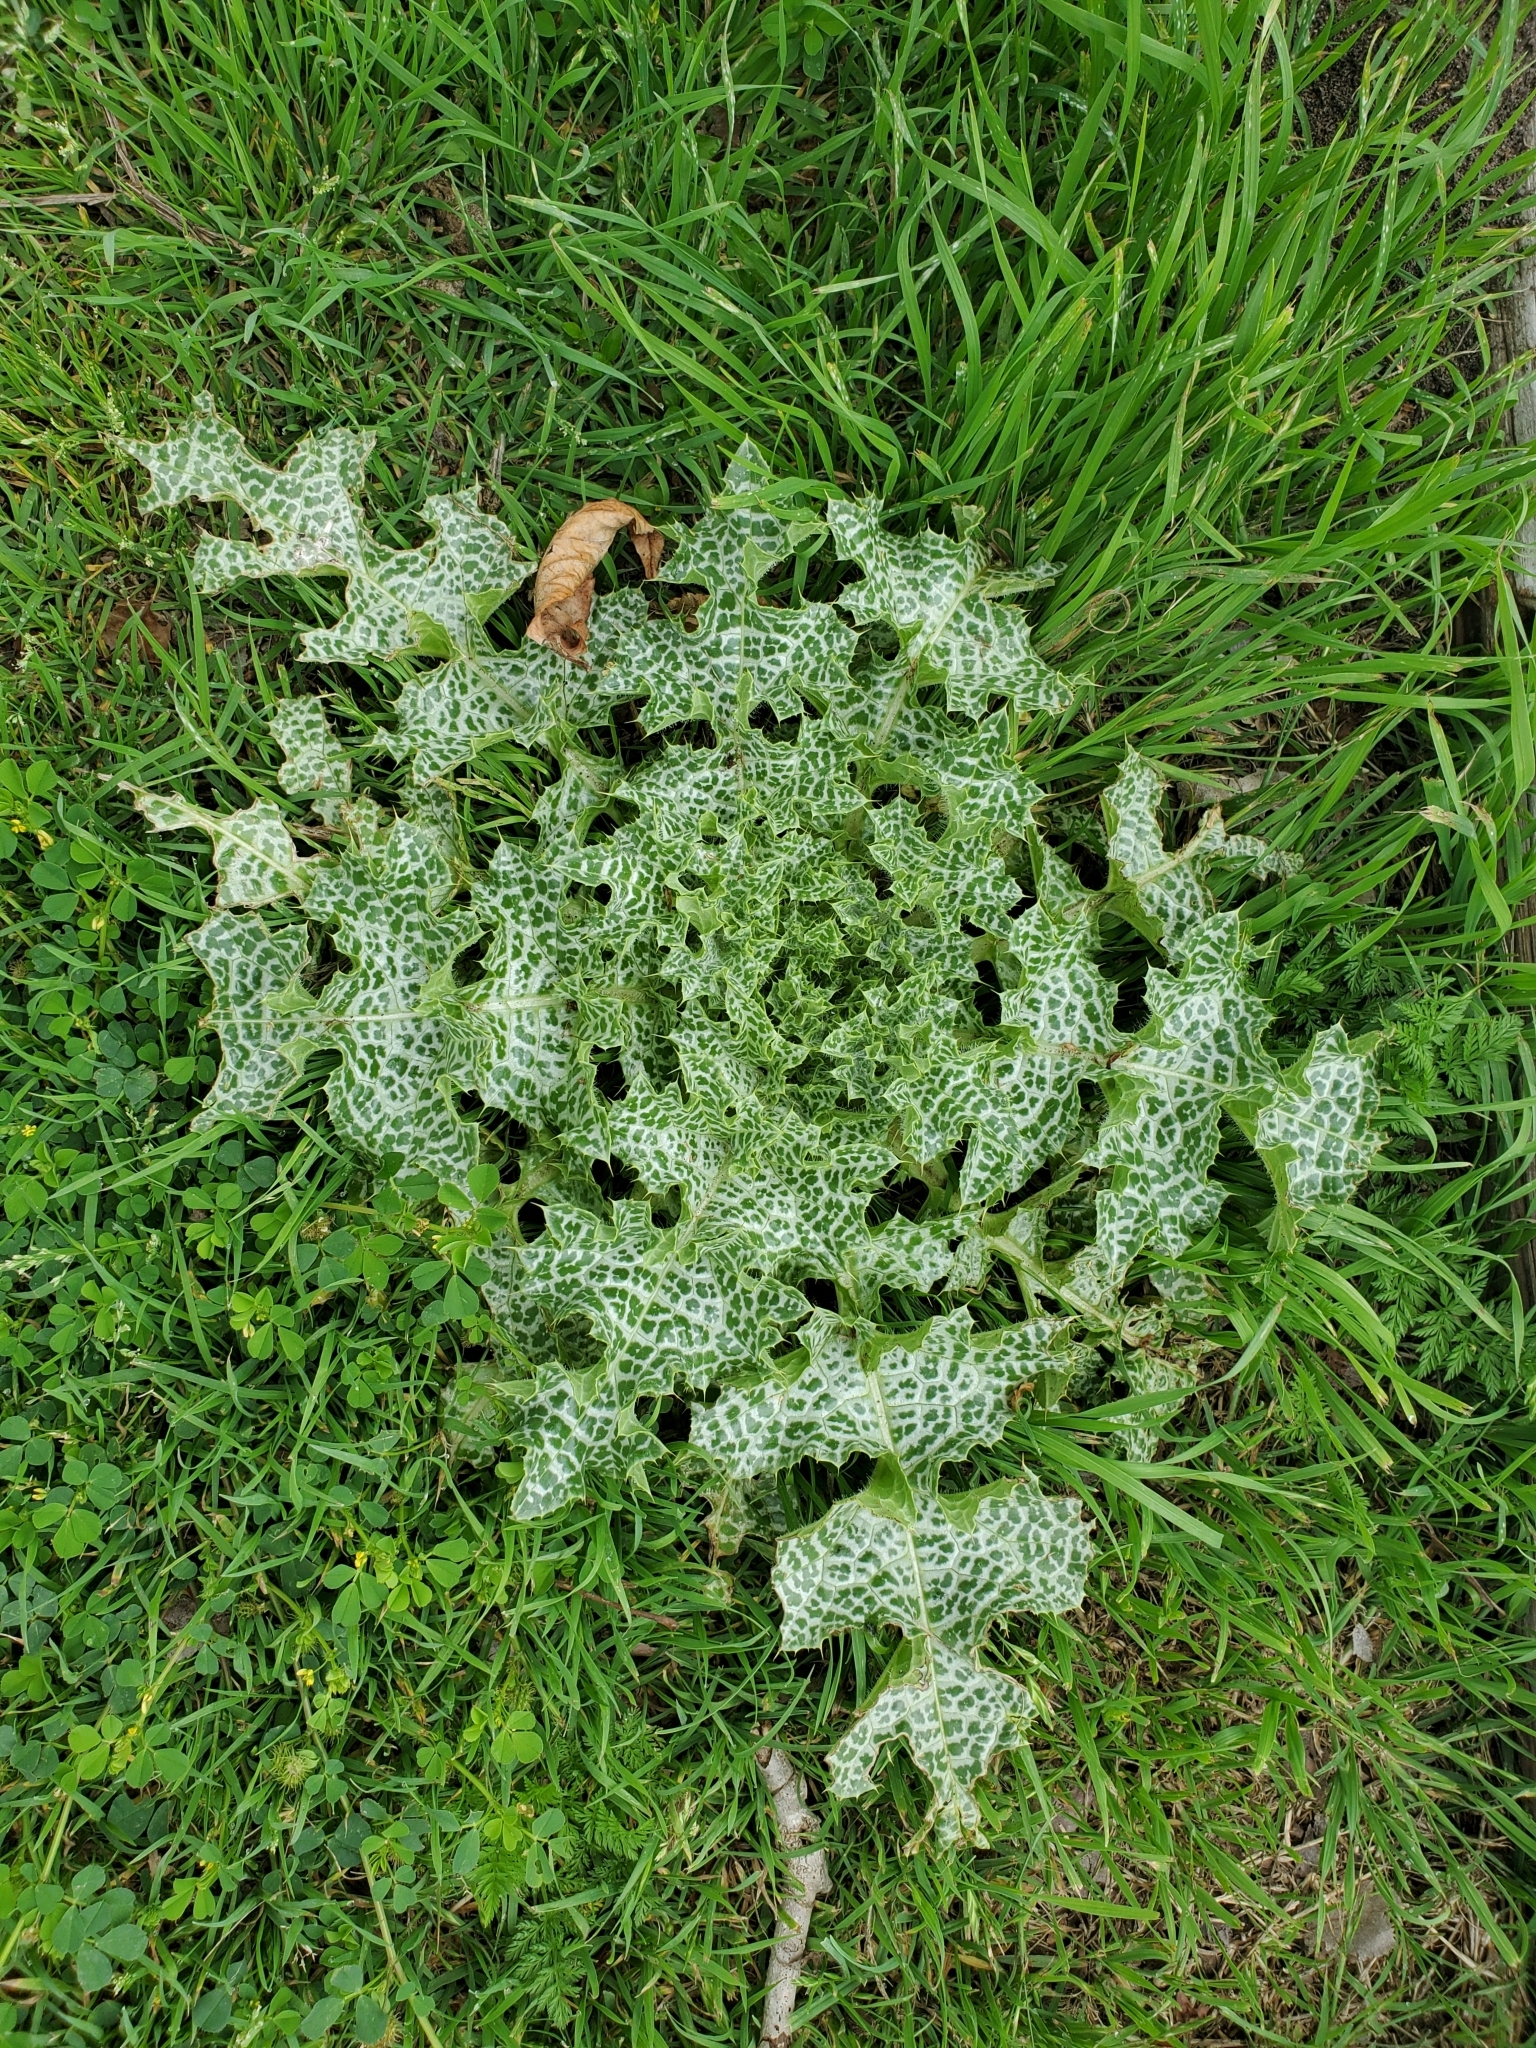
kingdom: Plantae
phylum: Tracheophyta
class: Magnoliopsida
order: Asterales
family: Asteraceae
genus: Silybum
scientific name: Silybum marianum
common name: Milk thistle
